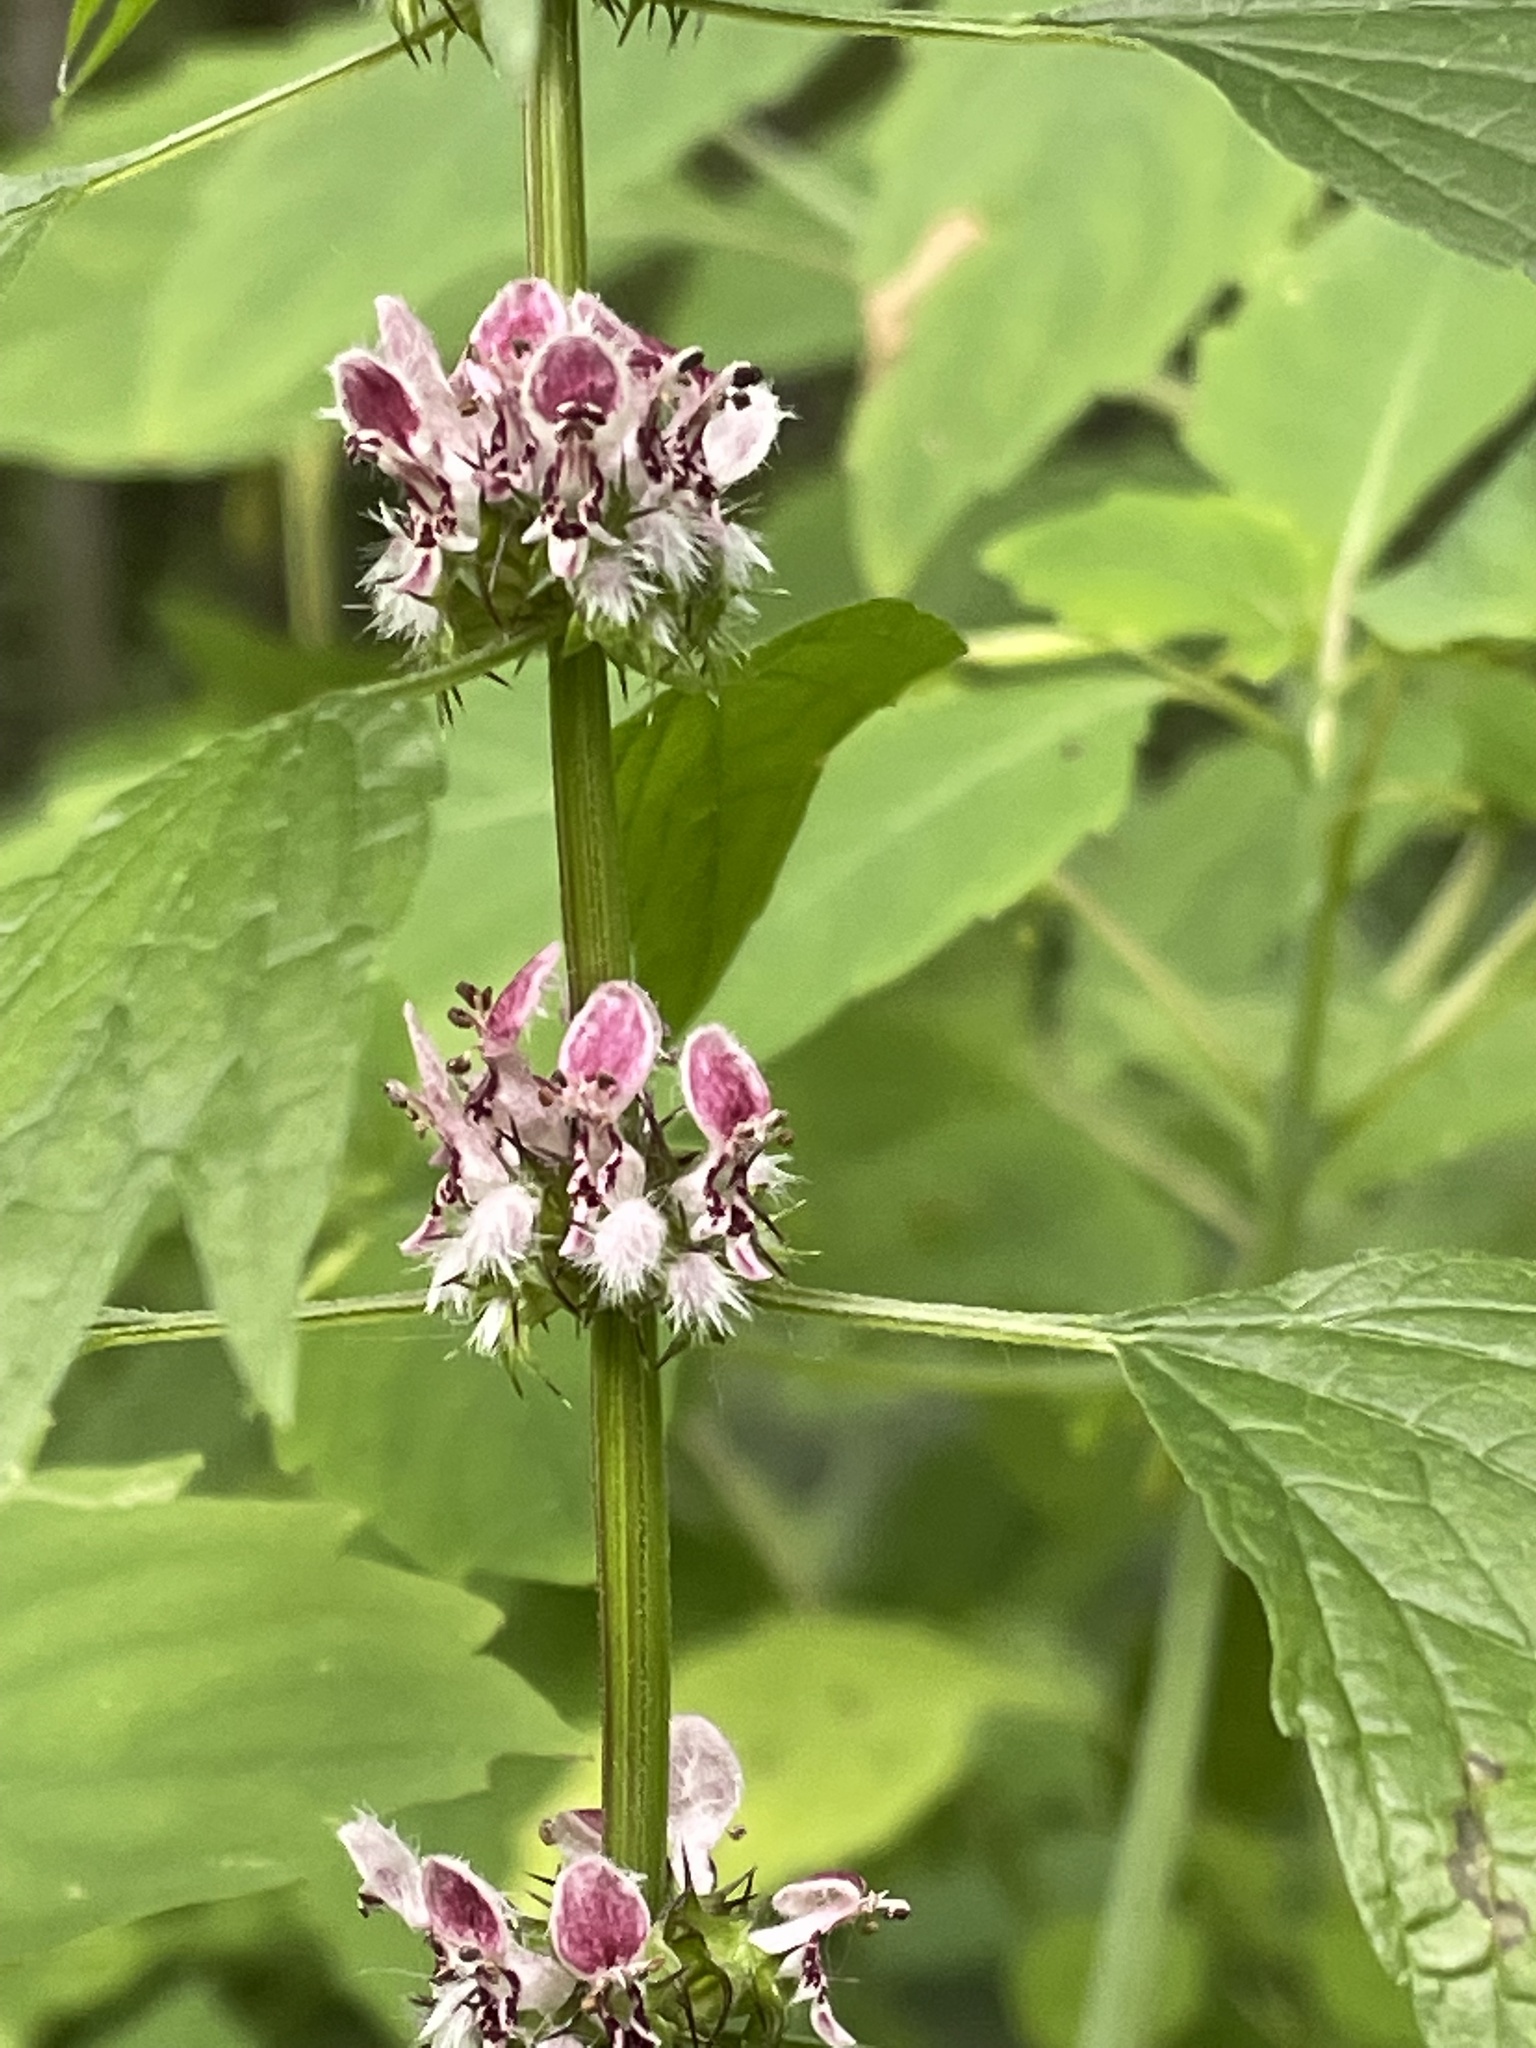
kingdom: Plantae
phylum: Tracheophyta
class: Magnoliopsida
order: Lamiales
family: Lamiaceae
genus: Leonurus
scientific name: Leonurus cardiaca
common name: Motherwort
